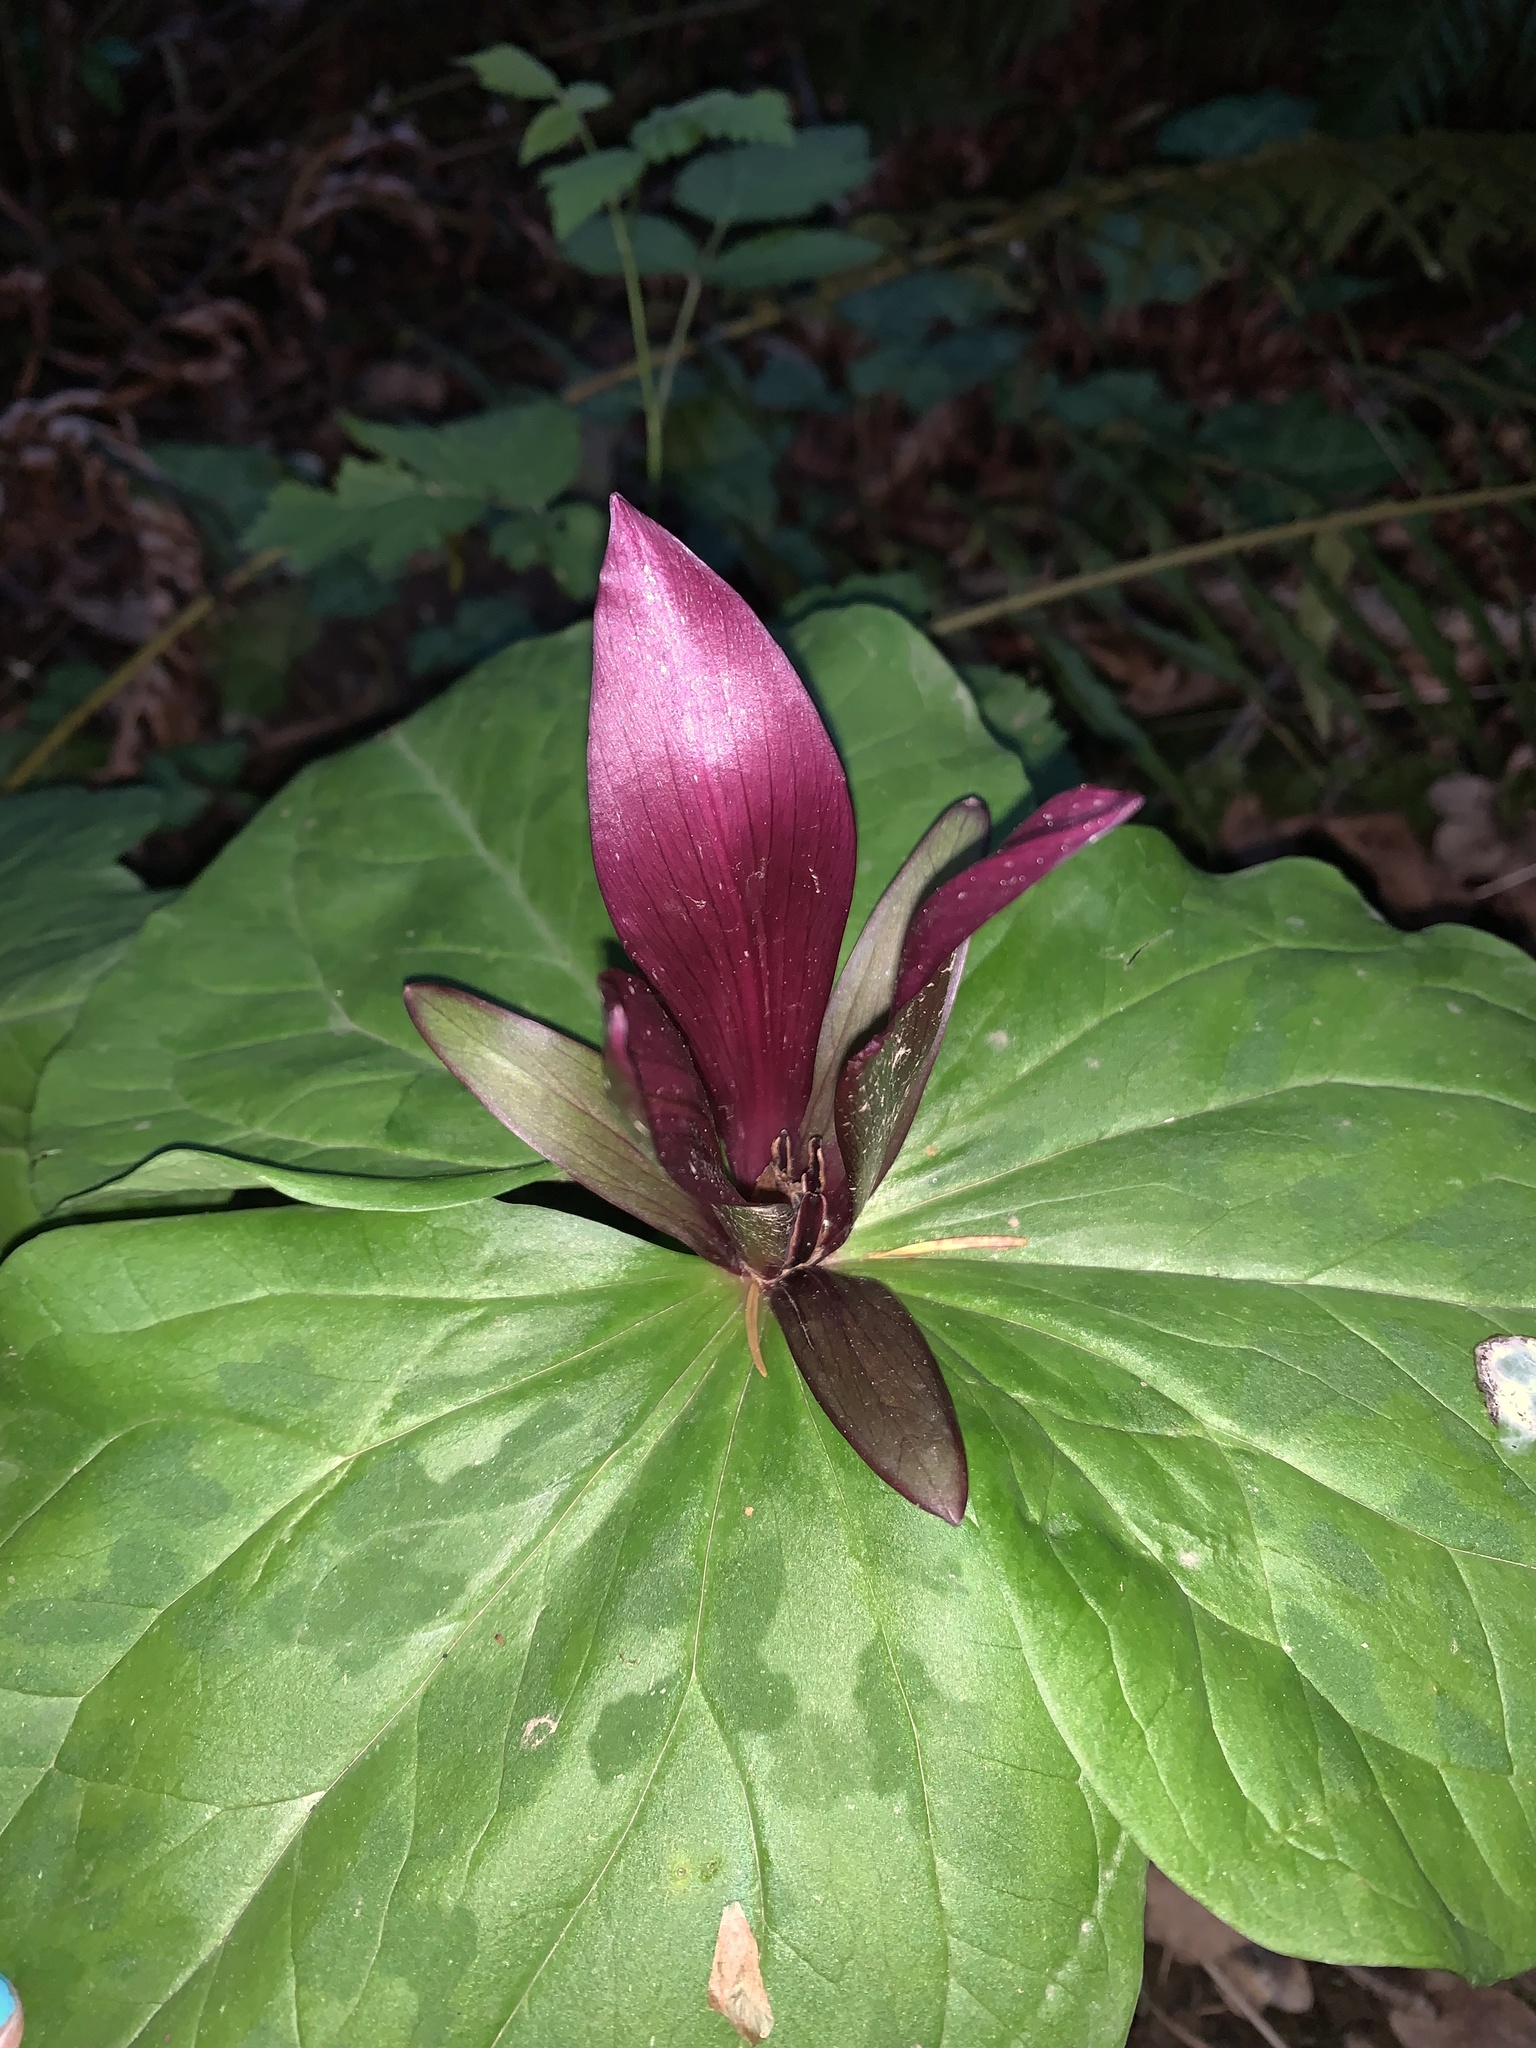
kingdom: Plantae
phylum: Tracheophyta
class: Liliopsida
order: Liliales
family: Melanthiaceae
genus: Trillium
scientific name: Trillium chloropetalum
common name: Giant trillium
